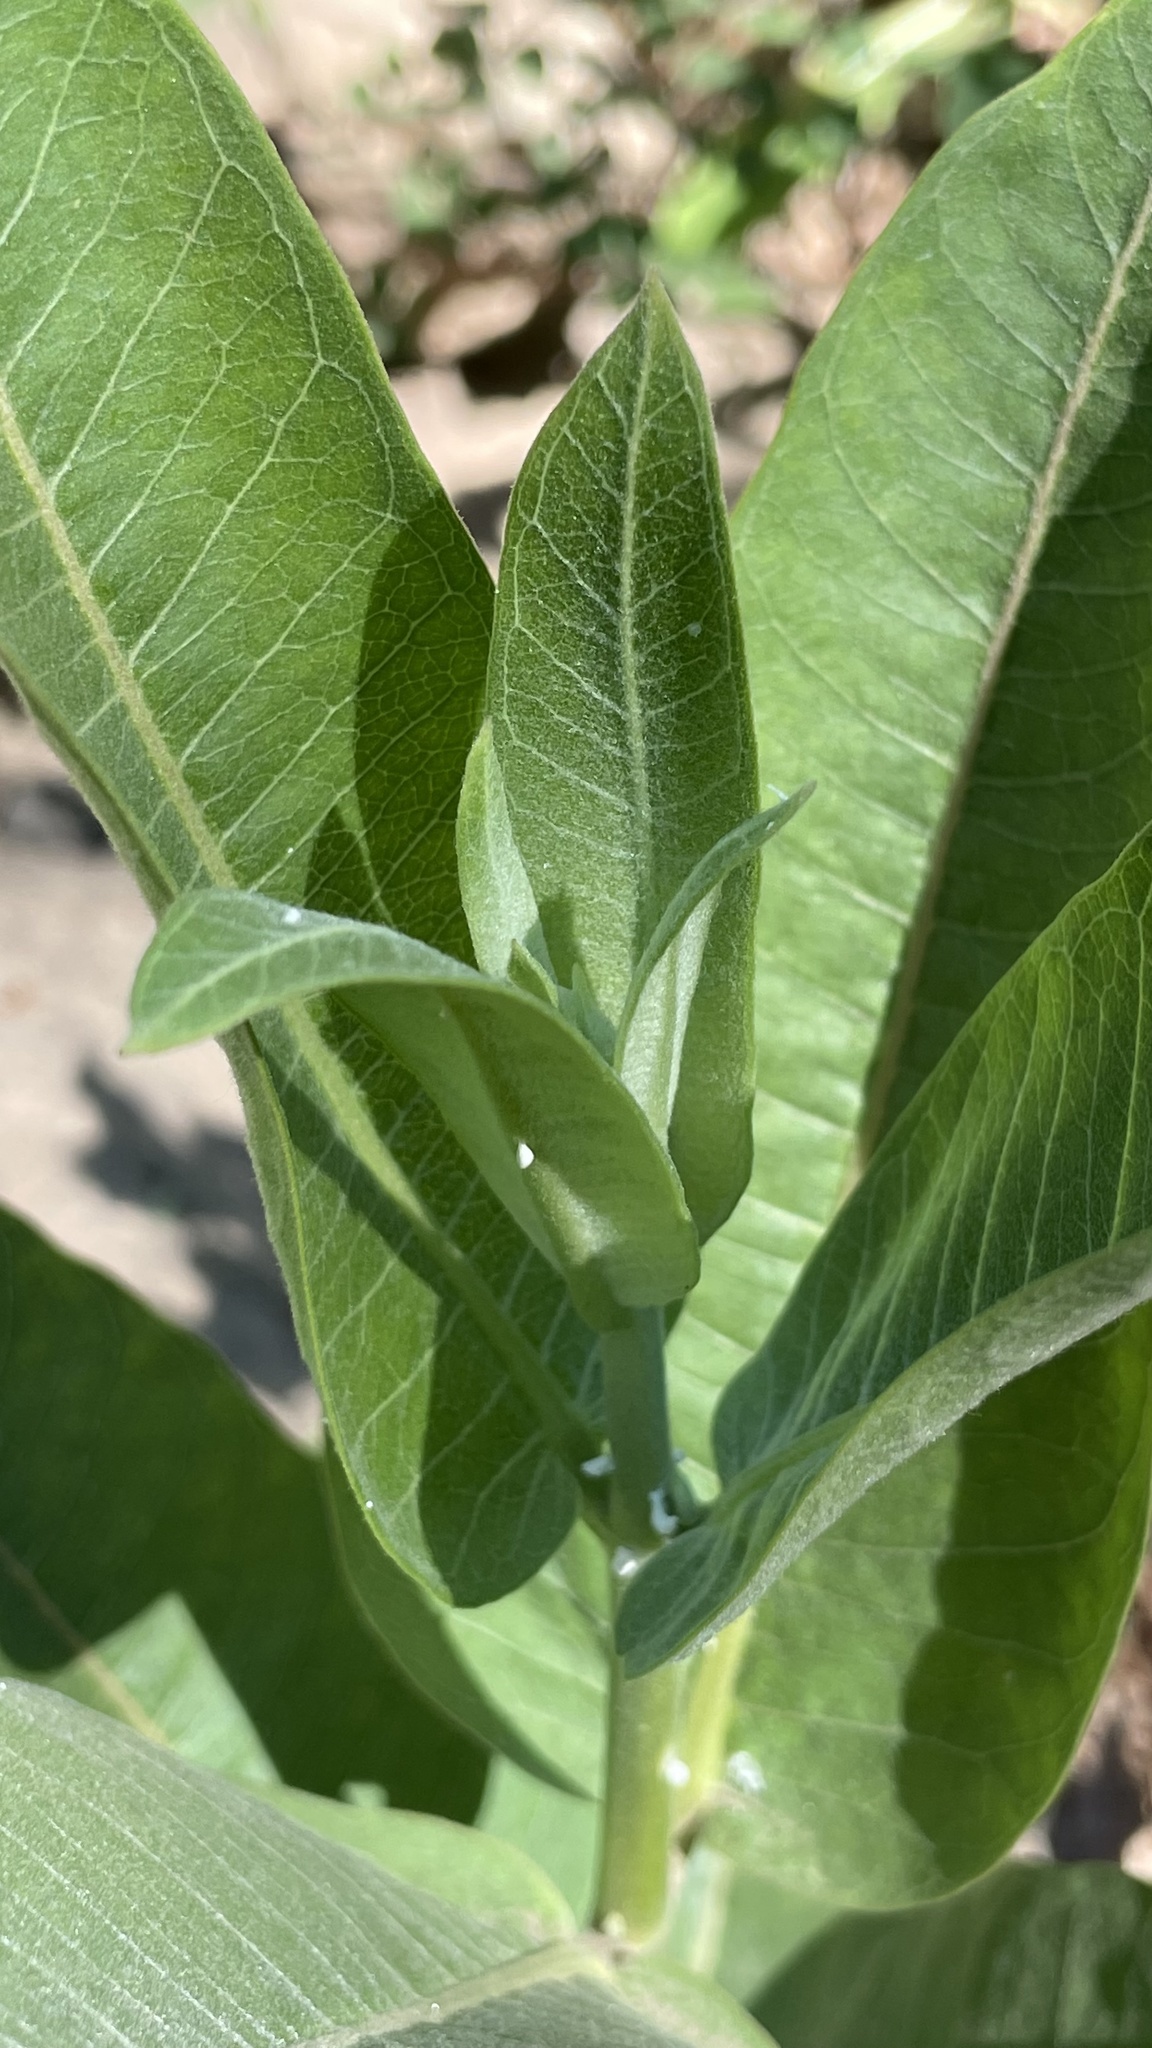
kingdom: Plantae
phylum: Tracheophyta
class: Magnoliopsida
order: Gentianales
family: Apocynaceae
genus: Asclepias
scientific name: Asclepias speciosa
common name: Showy milkweed
